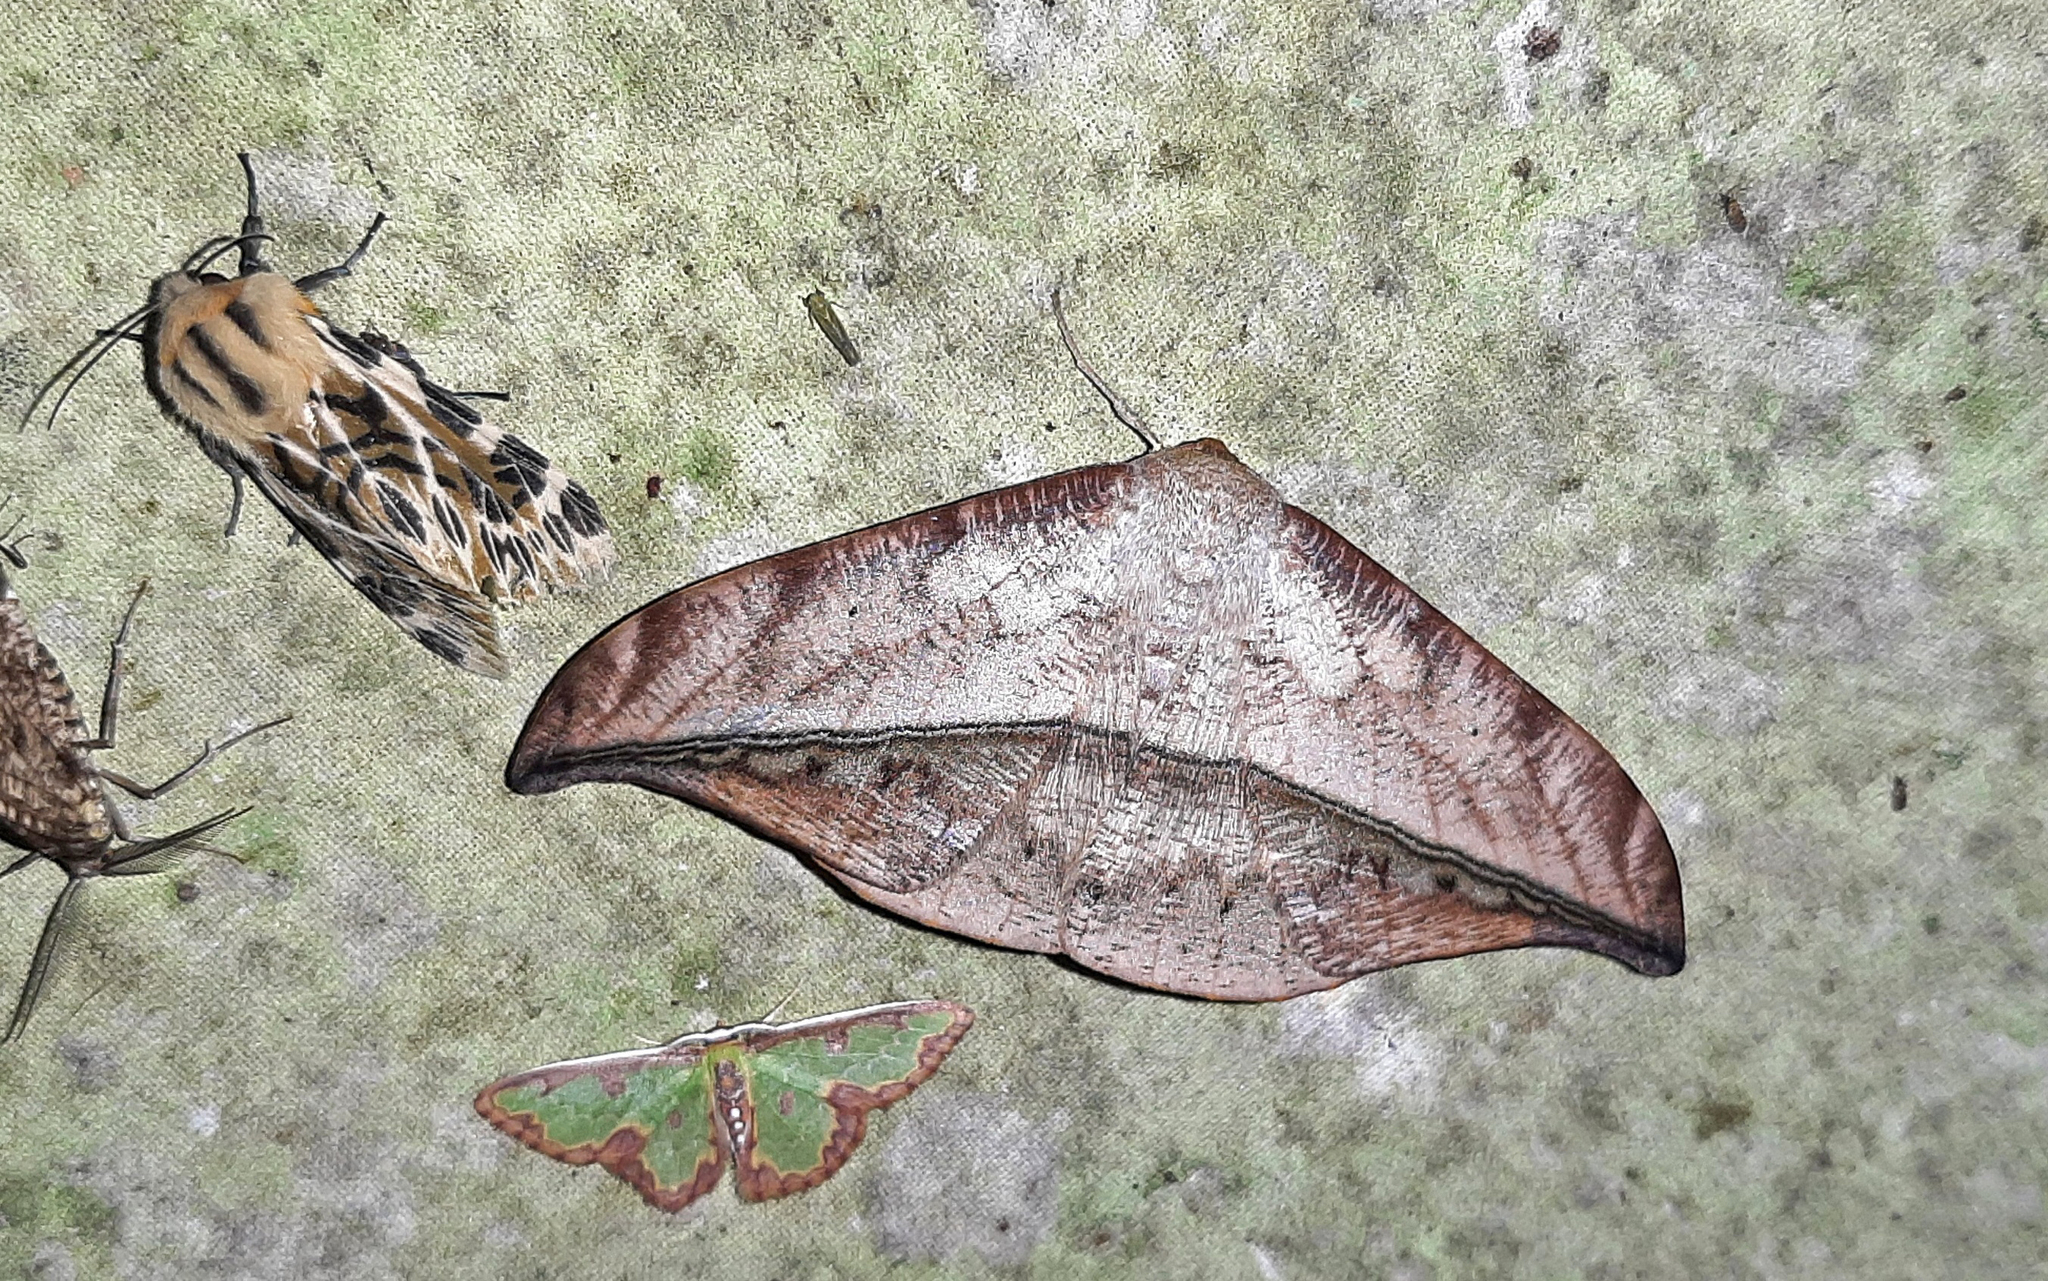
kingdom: Animalia
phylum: Arthropoda
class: Insecta
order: Lepidoptera
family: Geometridae
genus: Oxydia
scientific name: Oxydia augusta
